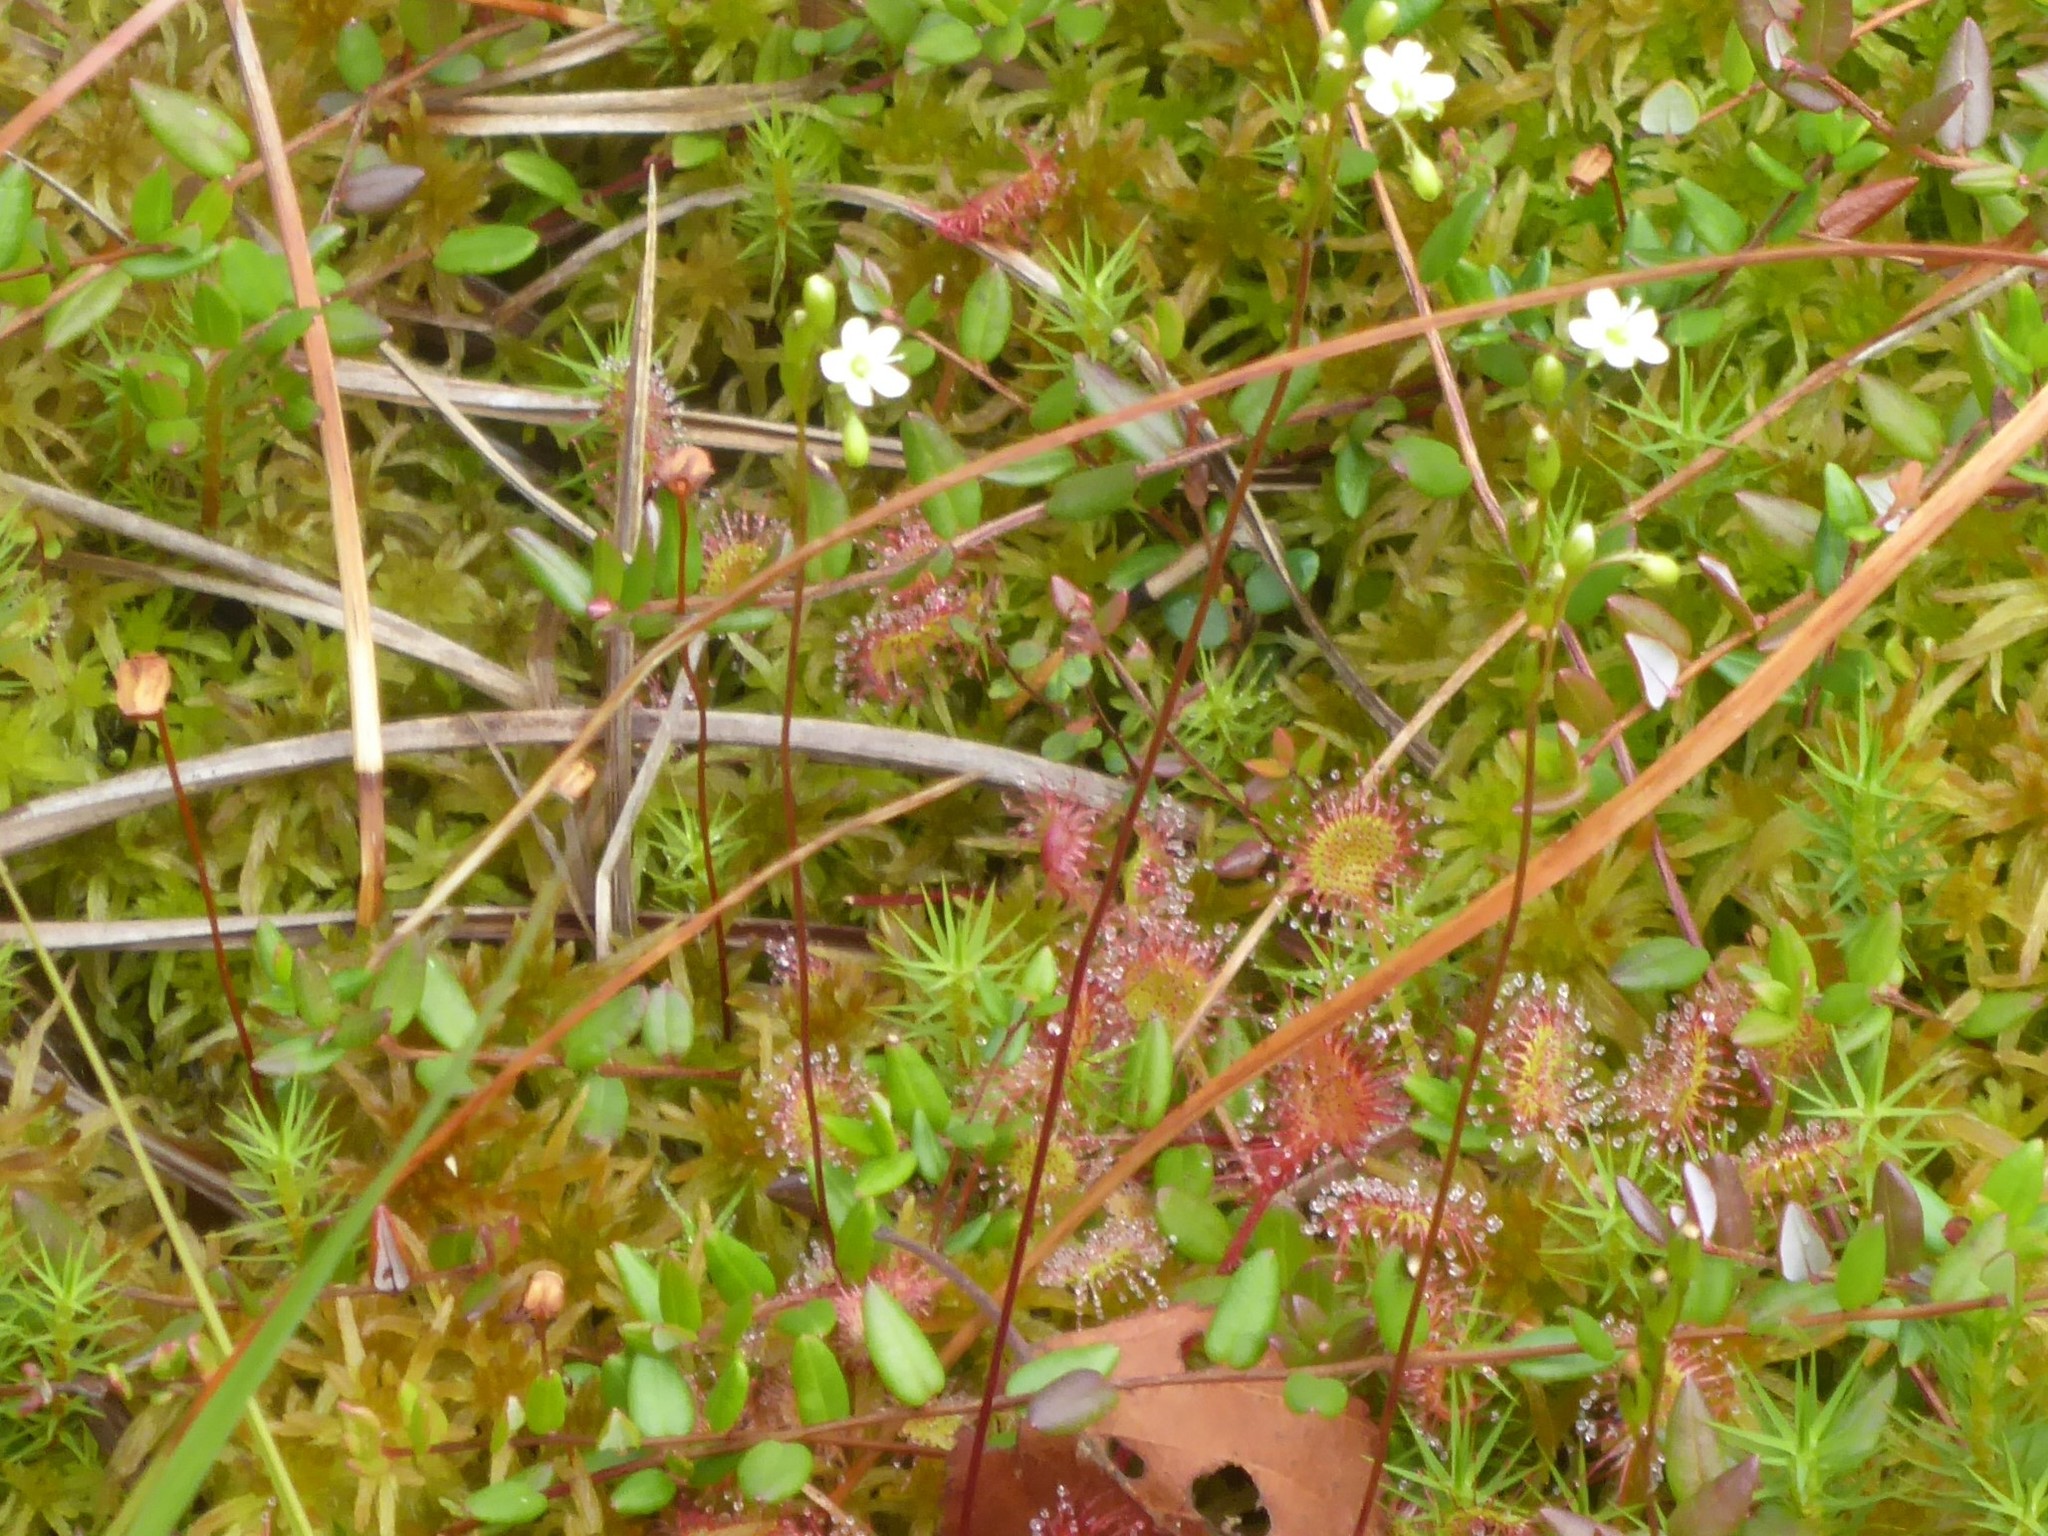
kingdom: Plantae
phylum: Tracheophyta
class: Magnoliopsida
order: Caryophyllales
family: Droseraceae
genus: Drosera
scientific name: Drosera rotundifolia
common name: Round-leaved sundew
